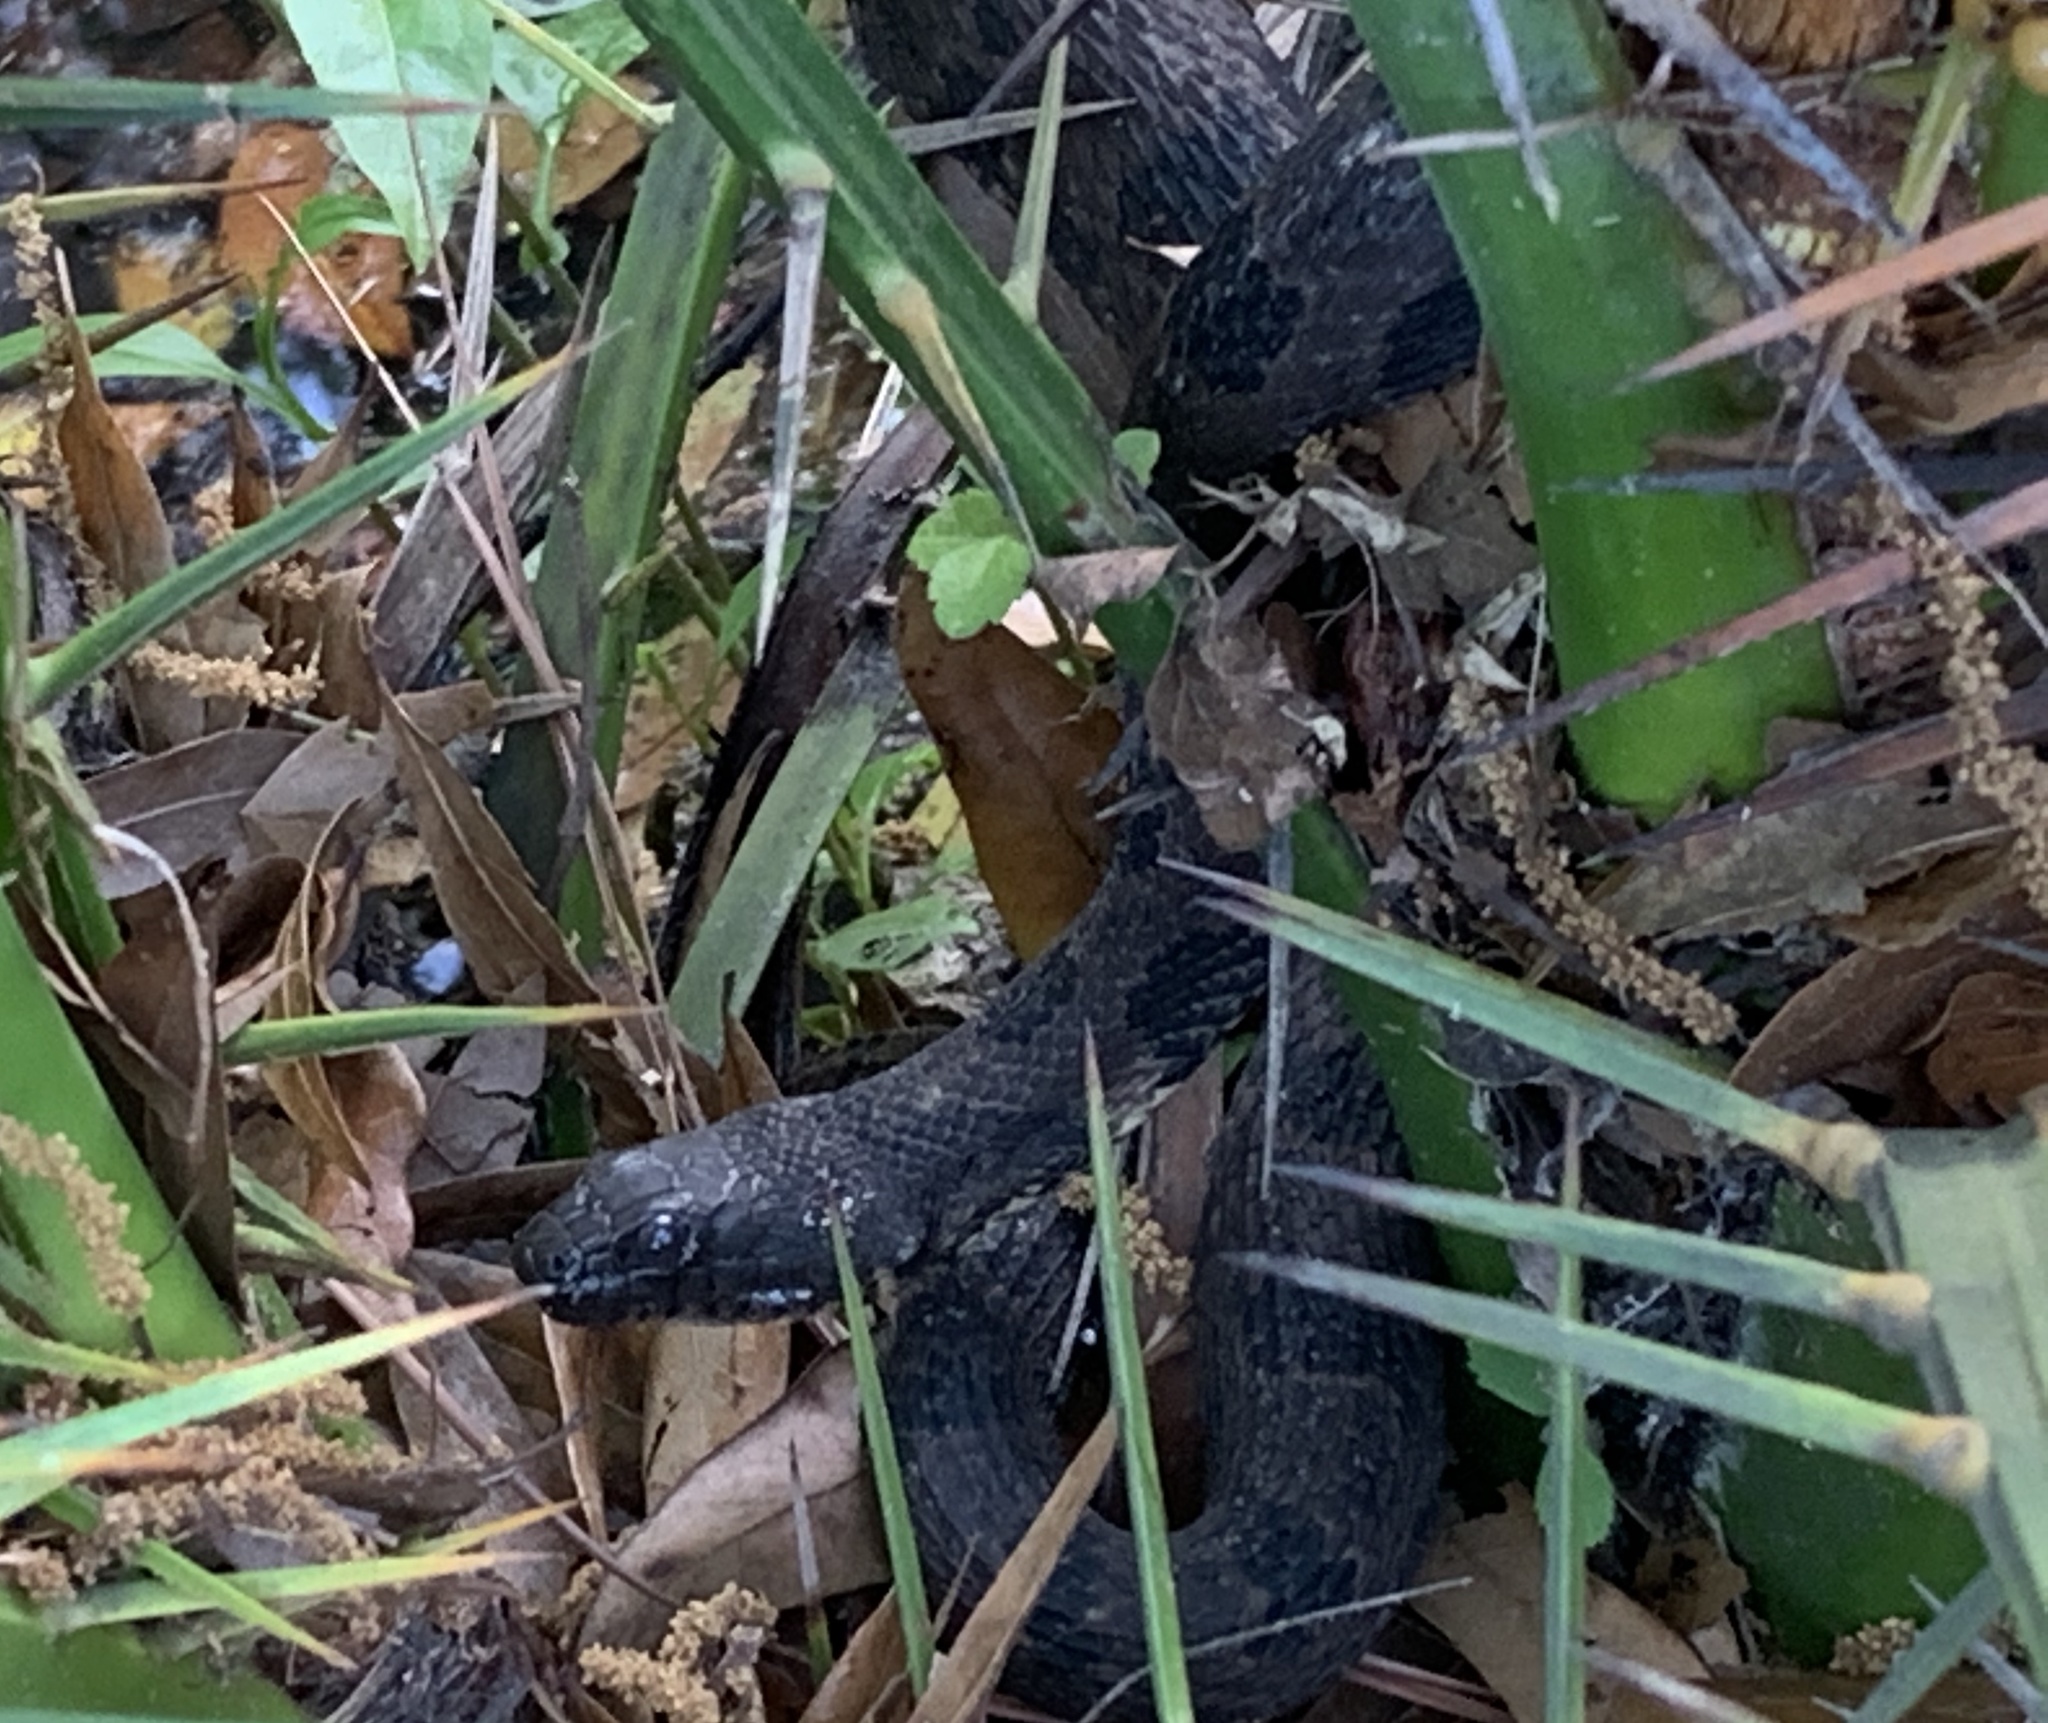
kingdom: Animalia
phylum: Chordata
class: Squamata
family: Colubridae
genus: Nerodia
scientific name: Nerodia taxispilota
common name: Brown water snake
